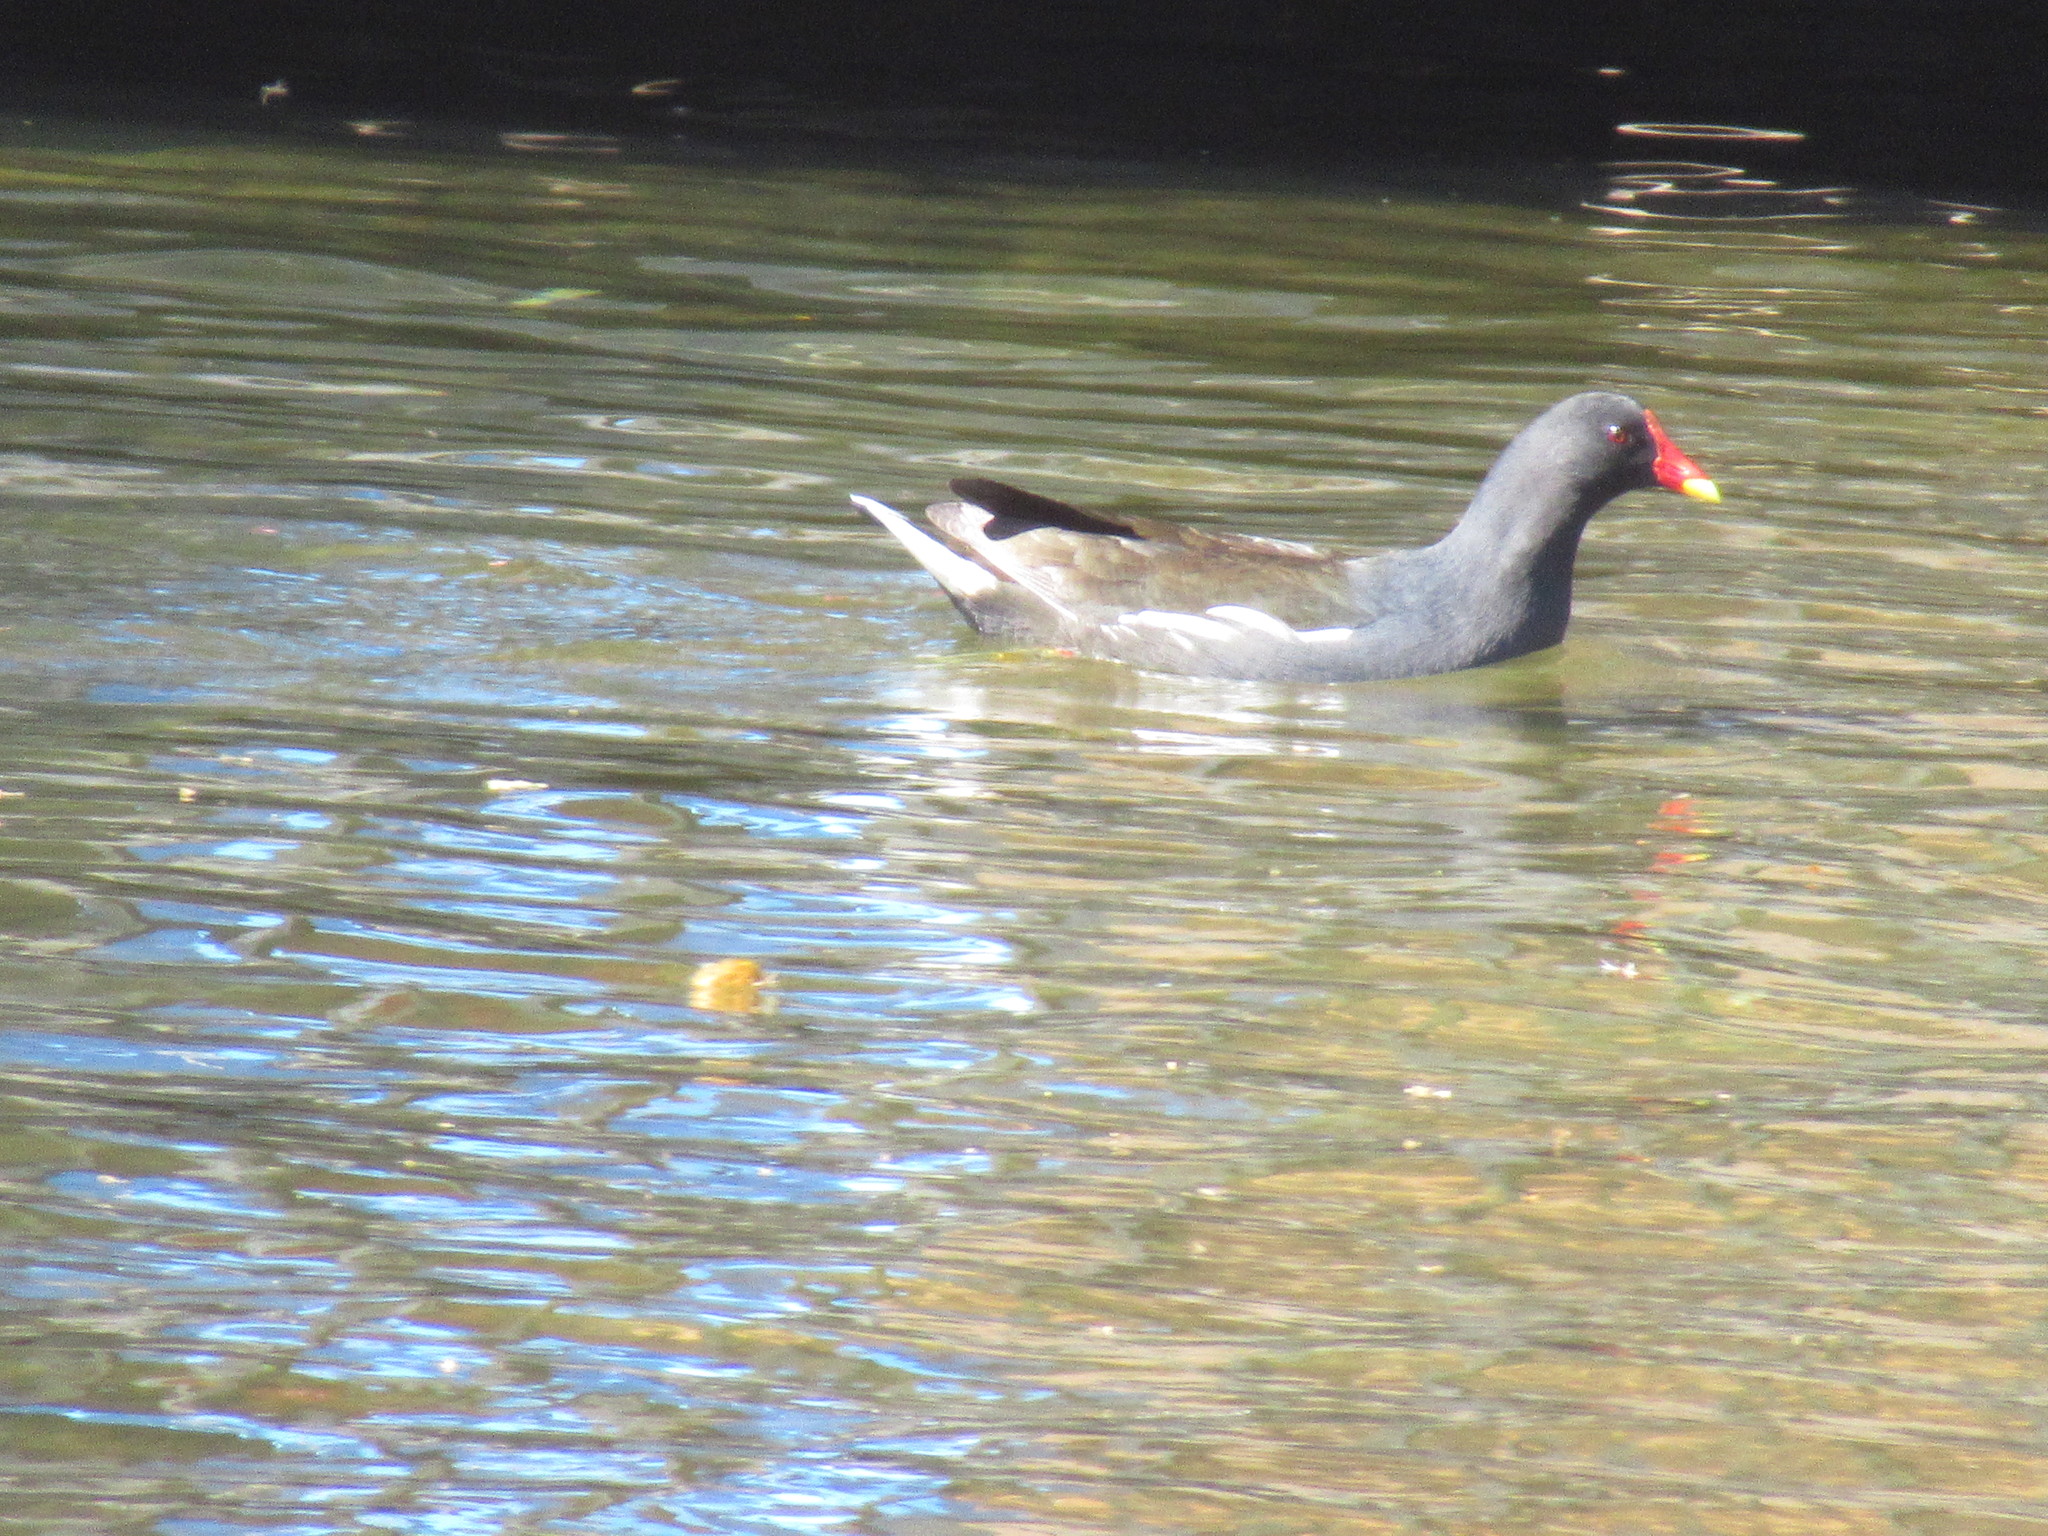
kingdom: Animalia
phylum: Chordata
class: Aves
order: Gruiformes
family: Rallidae
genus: Gallinula
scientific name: Gallinula chloropus
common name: Common moorhen
